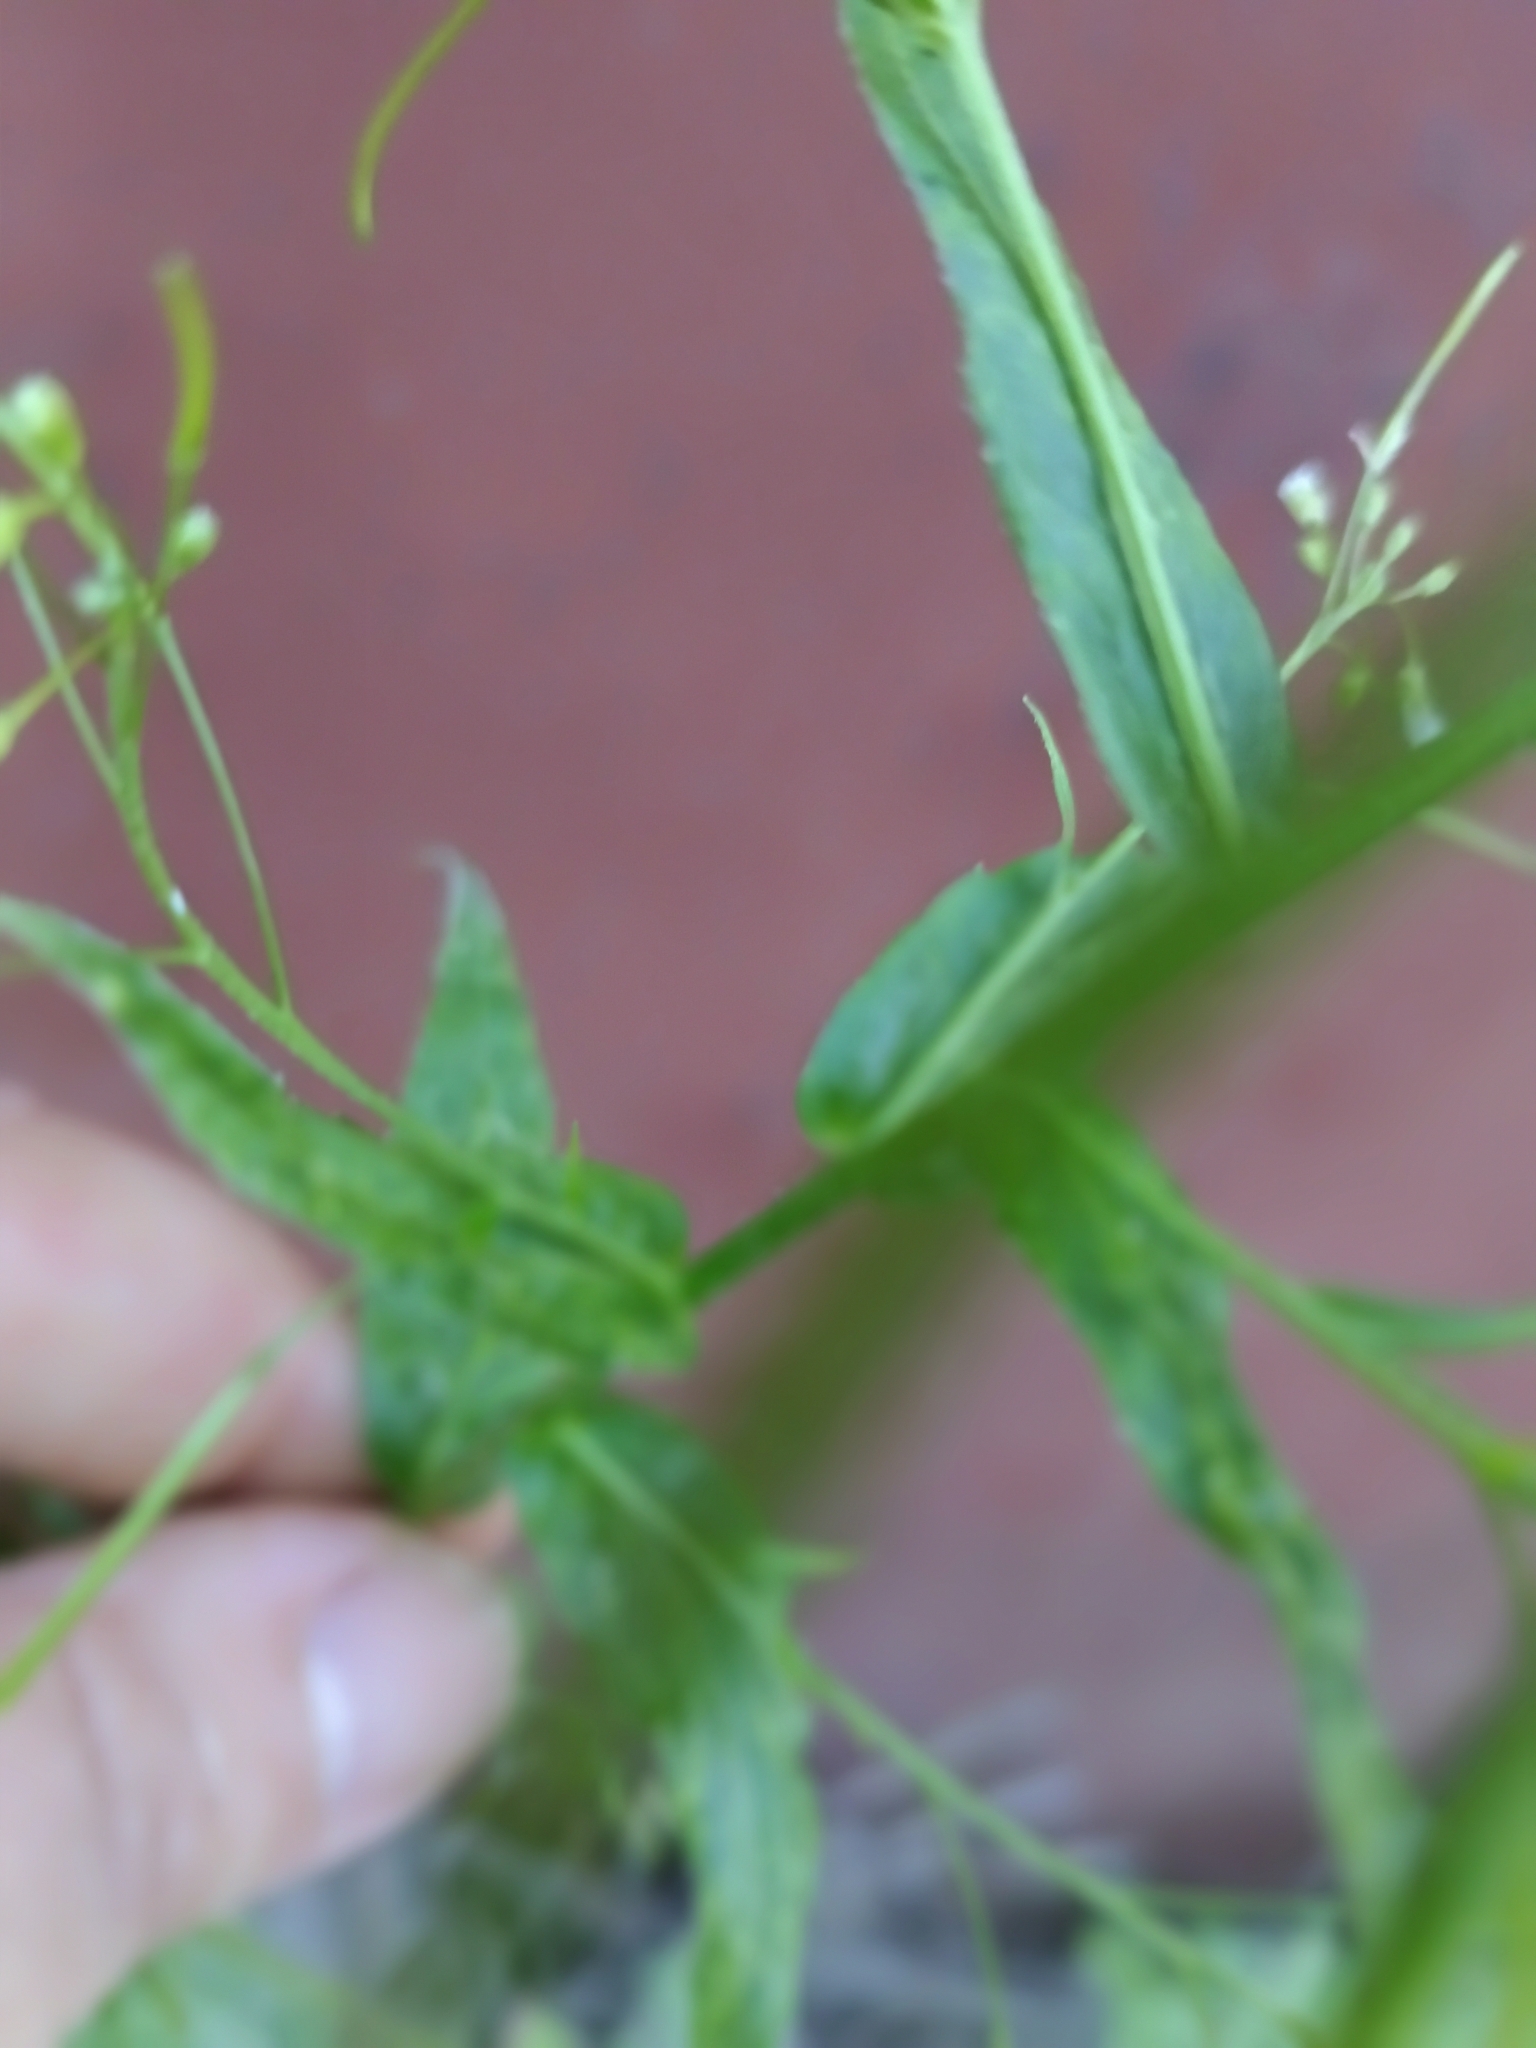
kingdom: Plantae
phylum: Tracheophyta
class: Magnoliopsida
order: Brassicales
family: Brassicaceae
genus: Catolobus
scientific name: Catolobus pendulus
